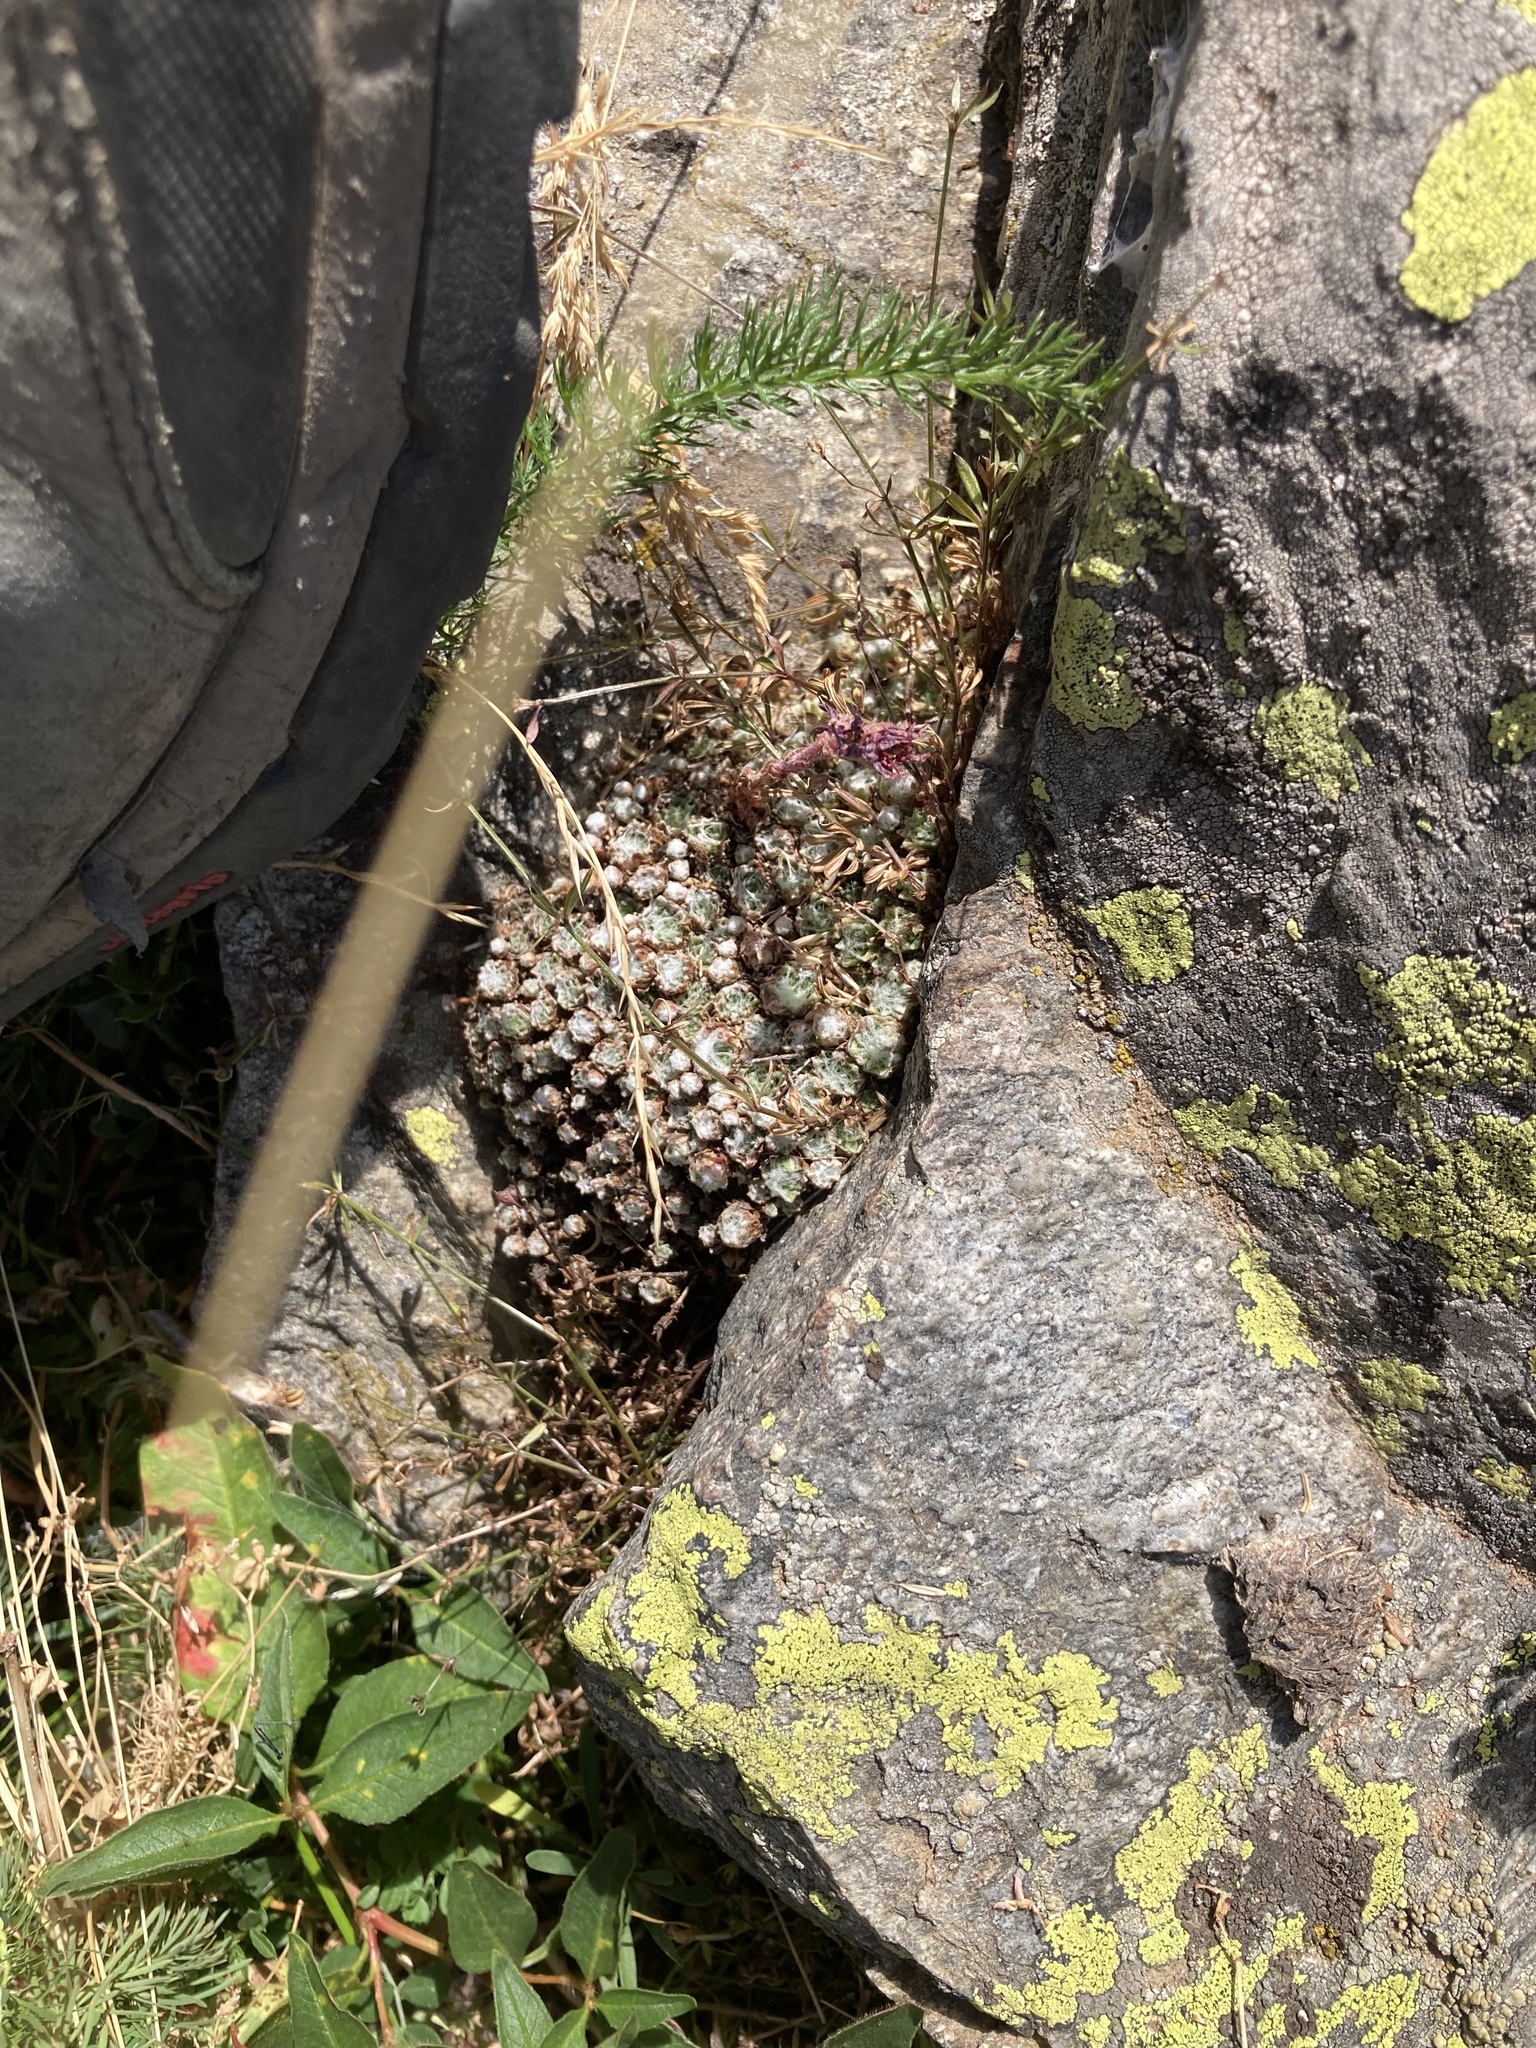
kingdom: Plantae
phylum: Tracheophyta
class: Magnoliopsida
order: Saxifragales
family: Crassulaceae
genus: Sempervivum
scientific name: Sempervivum arachnoideum
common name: Cobweb house-leek
